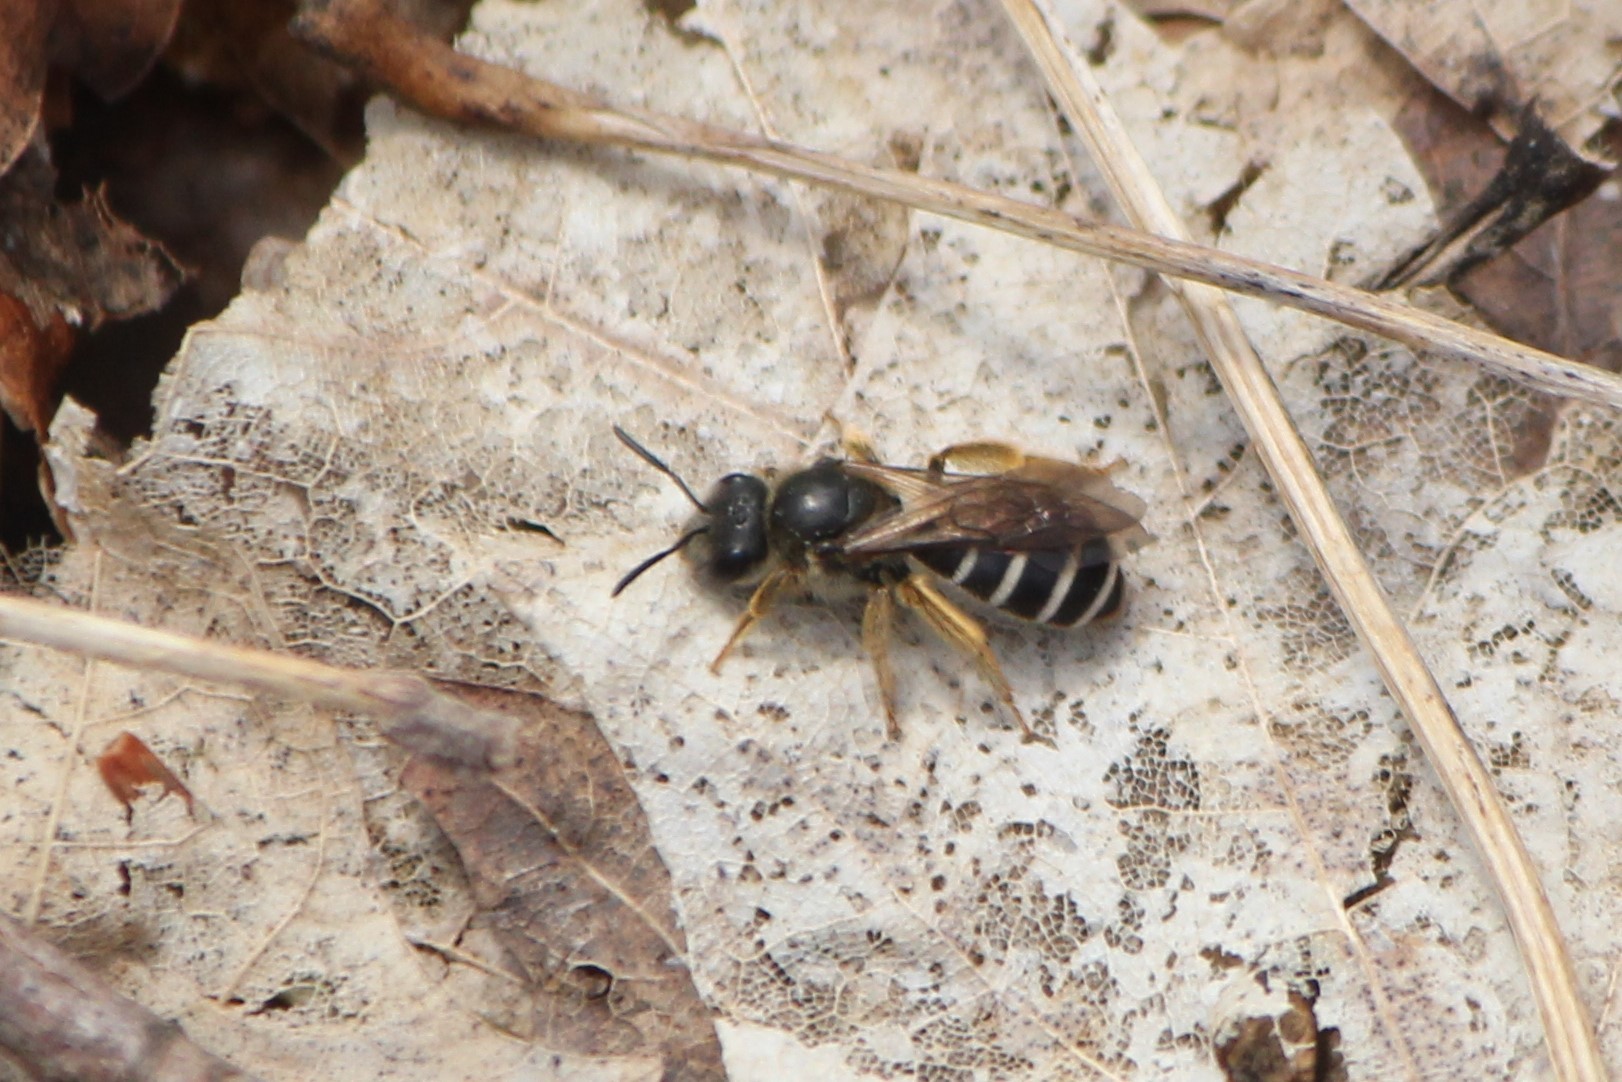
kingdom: Animalia
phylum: Arthropoda
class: Insecta
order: Hymenoptera
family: Halictidae
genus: Halictus
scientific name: Halictus rubicundus
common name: Orange-legged furrow bee
